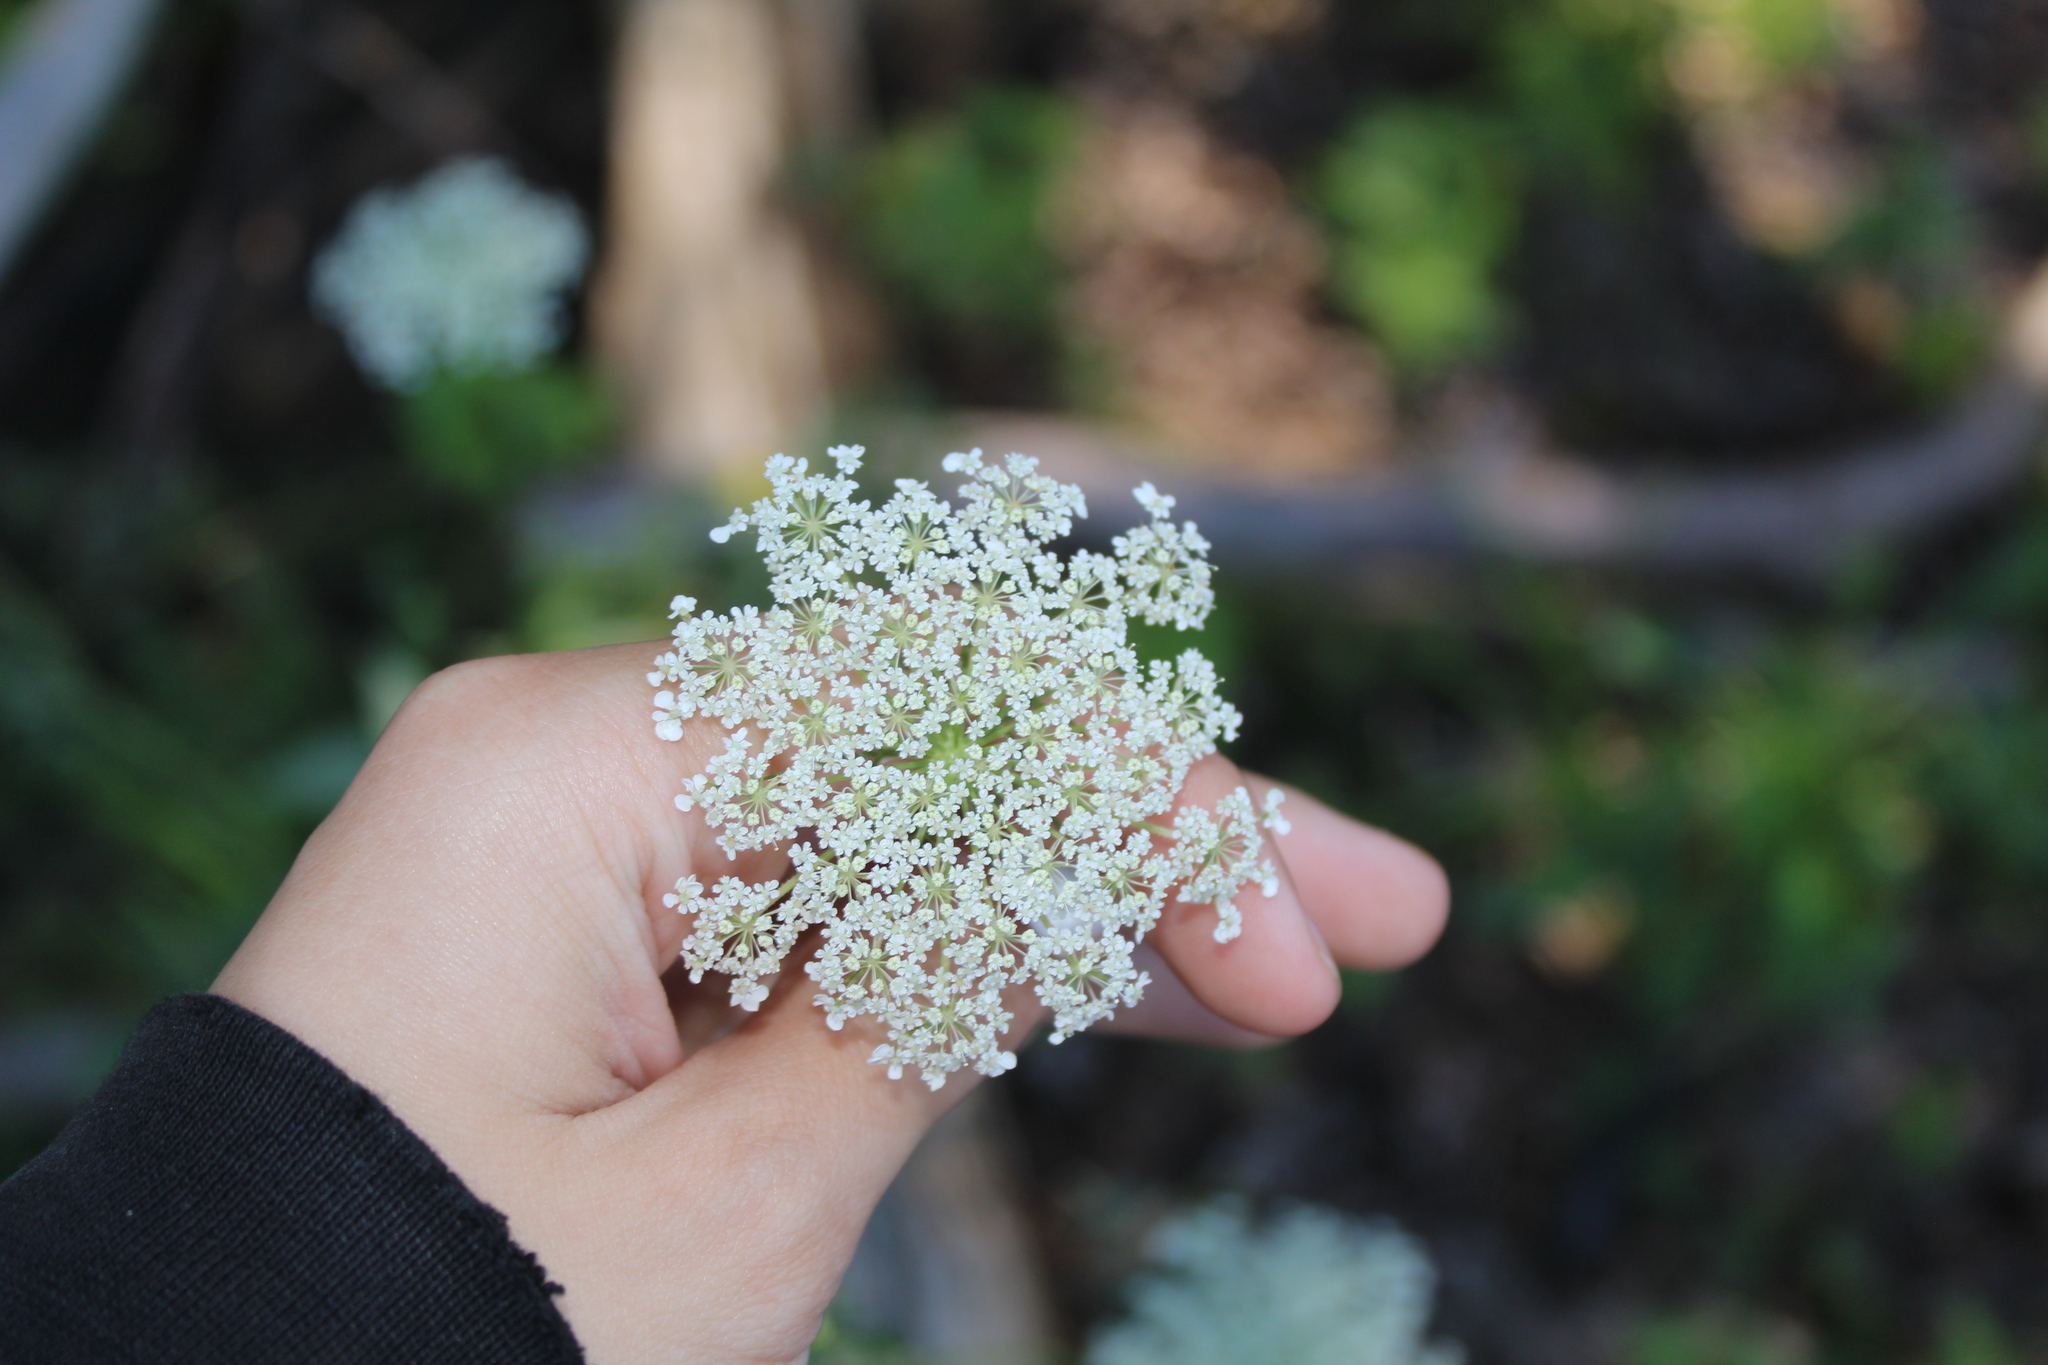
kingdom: Plantae
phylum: Tracheophyta
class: Magnoliopsida
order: Apiales
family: Apiaceae
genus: Daucus
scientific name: Daucus carota
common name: Wild carrot
